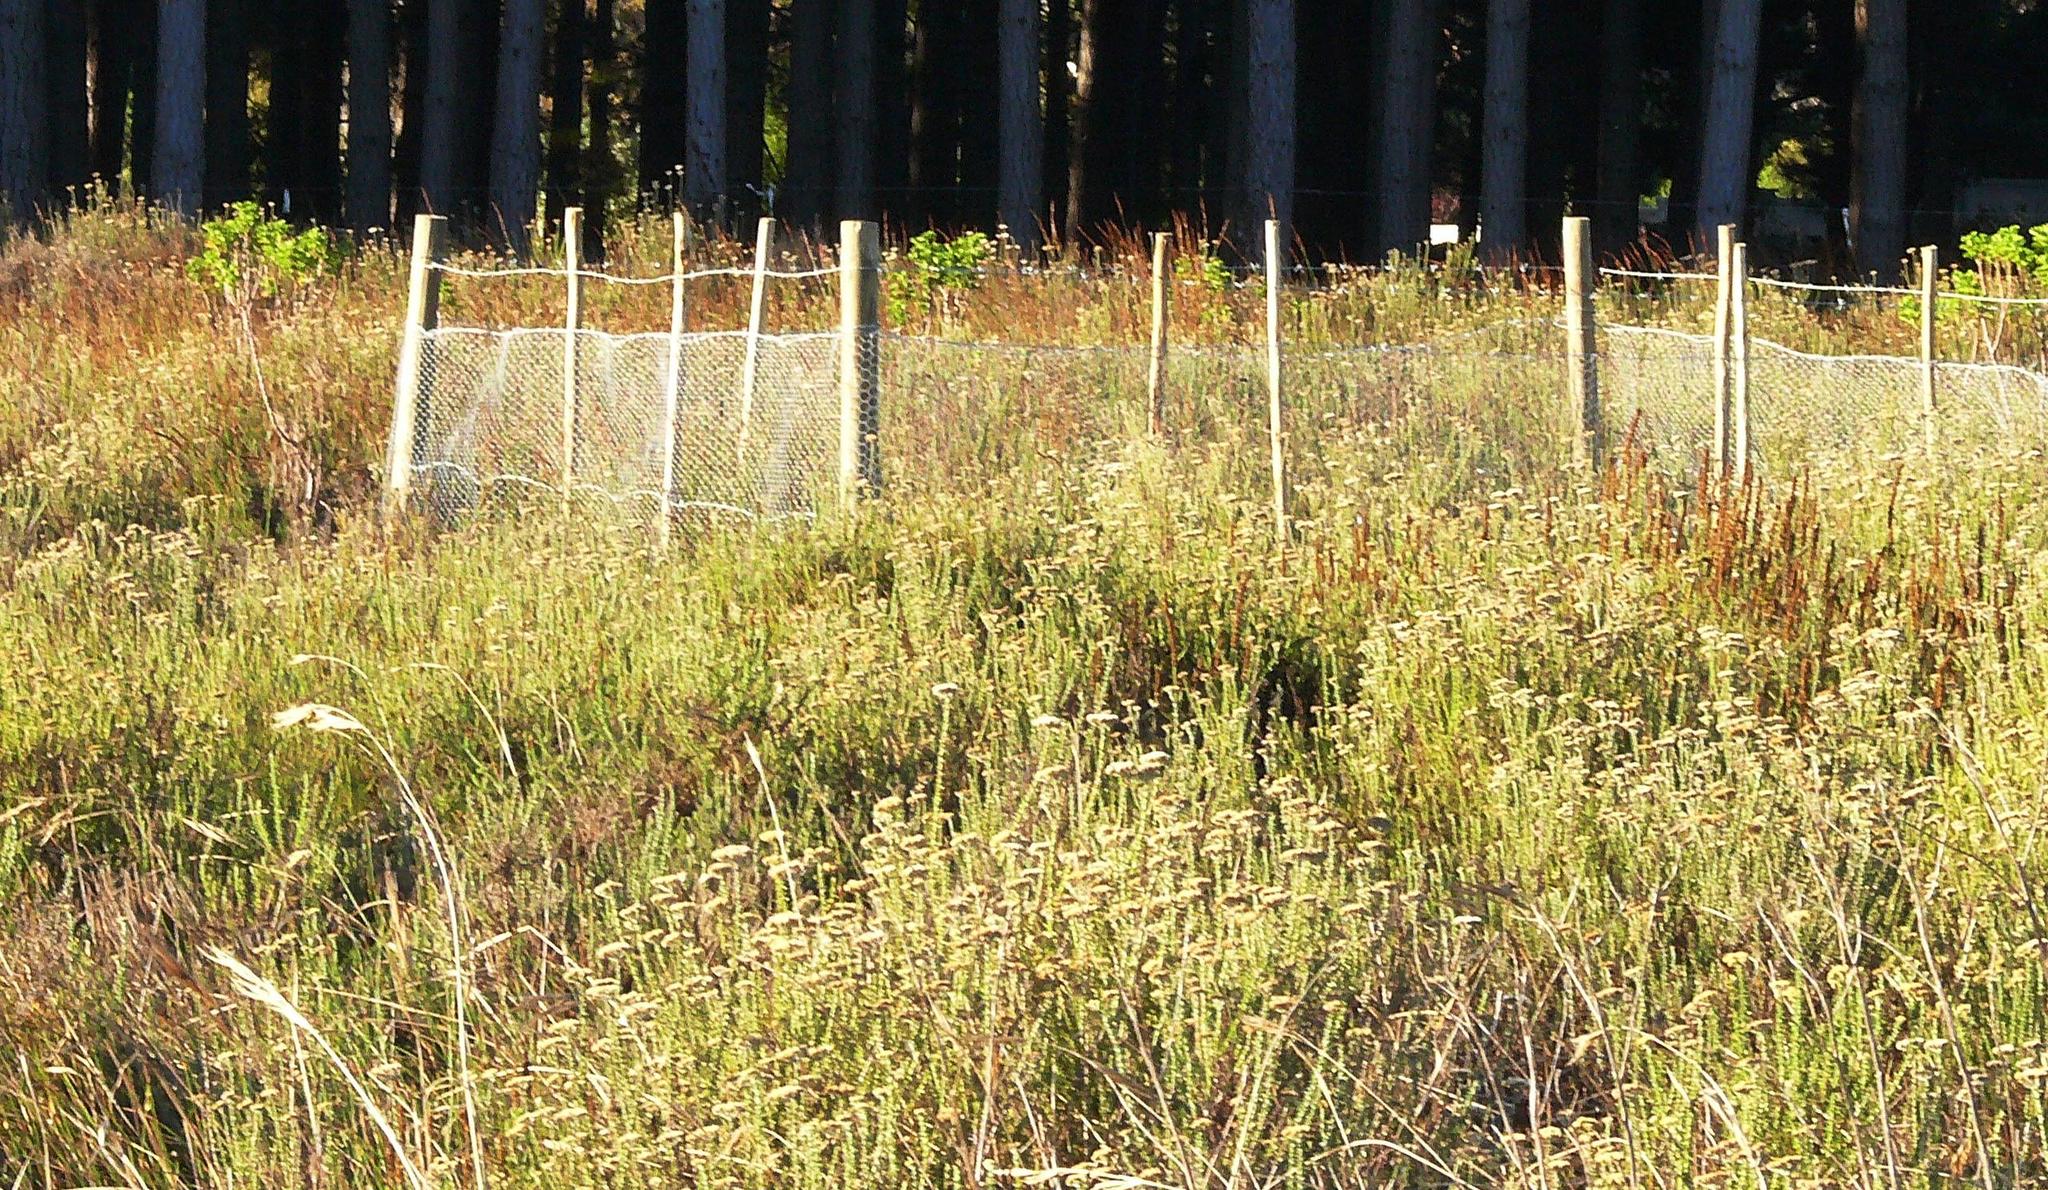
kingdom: Plantae
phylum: Tracheophyta
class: Magnoliopsida
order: Asterales
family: Asteraceae
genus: Metalasia
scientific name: Metalasia densa
